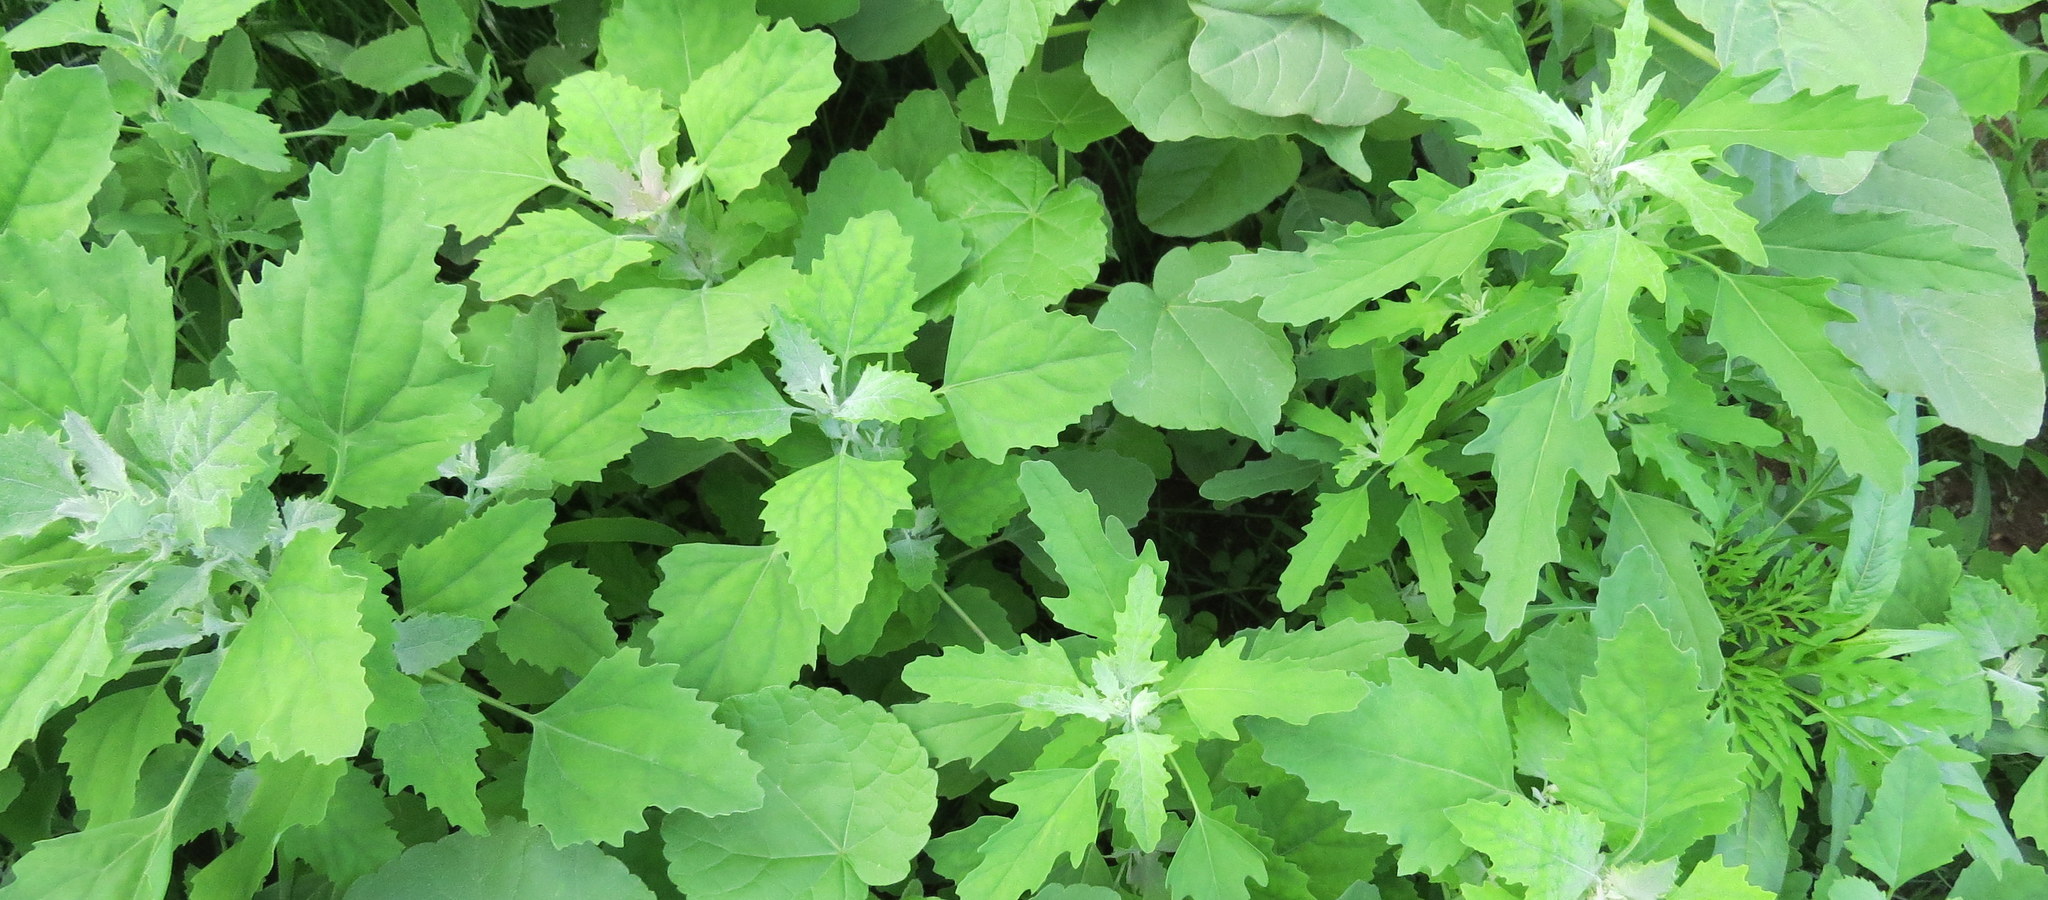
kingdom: Plantae
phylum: Tracheophyta
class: Magnoliopsida
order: Caryophyllales
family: Amaranthaceae
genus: Chenopodium
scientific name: Chenopodium album
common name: Fat-hen
